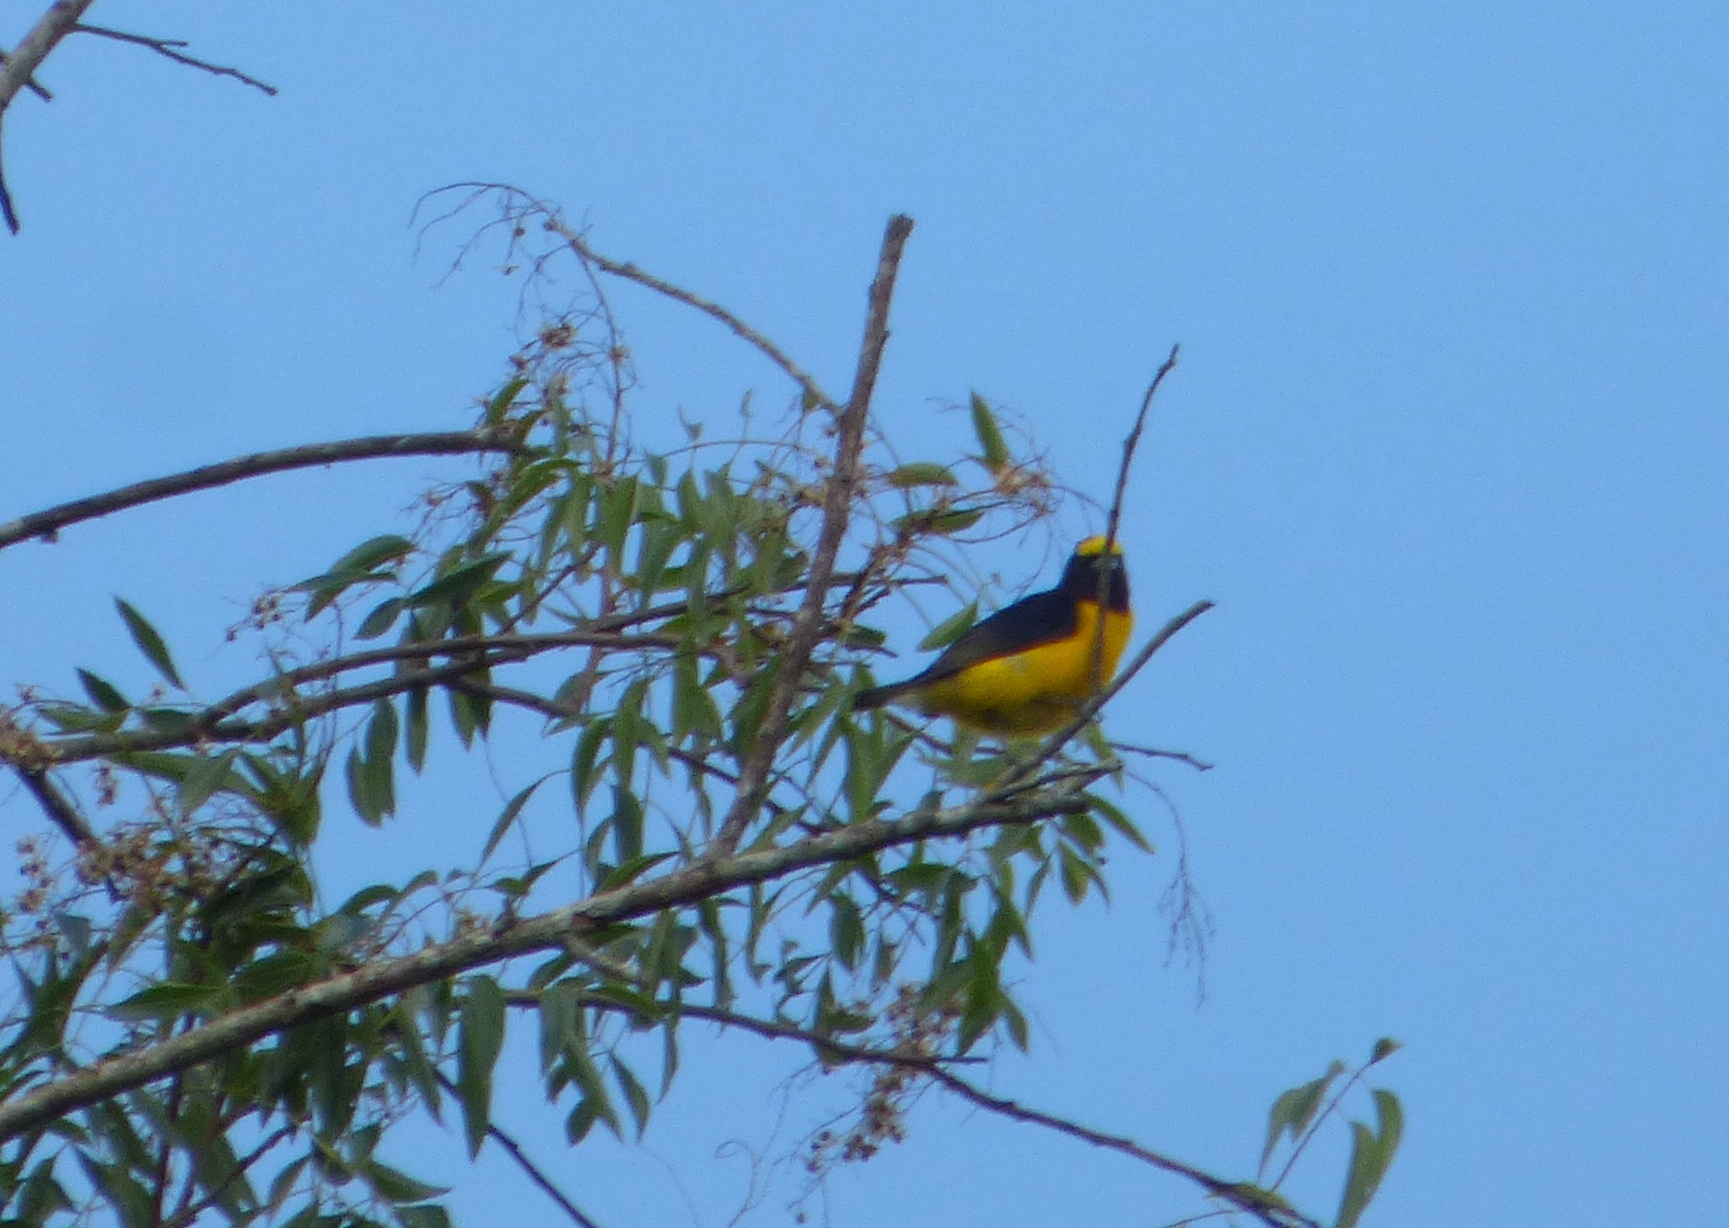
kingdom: Animalia
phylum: Chordata
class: Aves
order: Passeriformes
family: Fringillidae
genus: Euphonia
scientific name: Euphonia chlorotica
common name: Purple-throated euphonia
